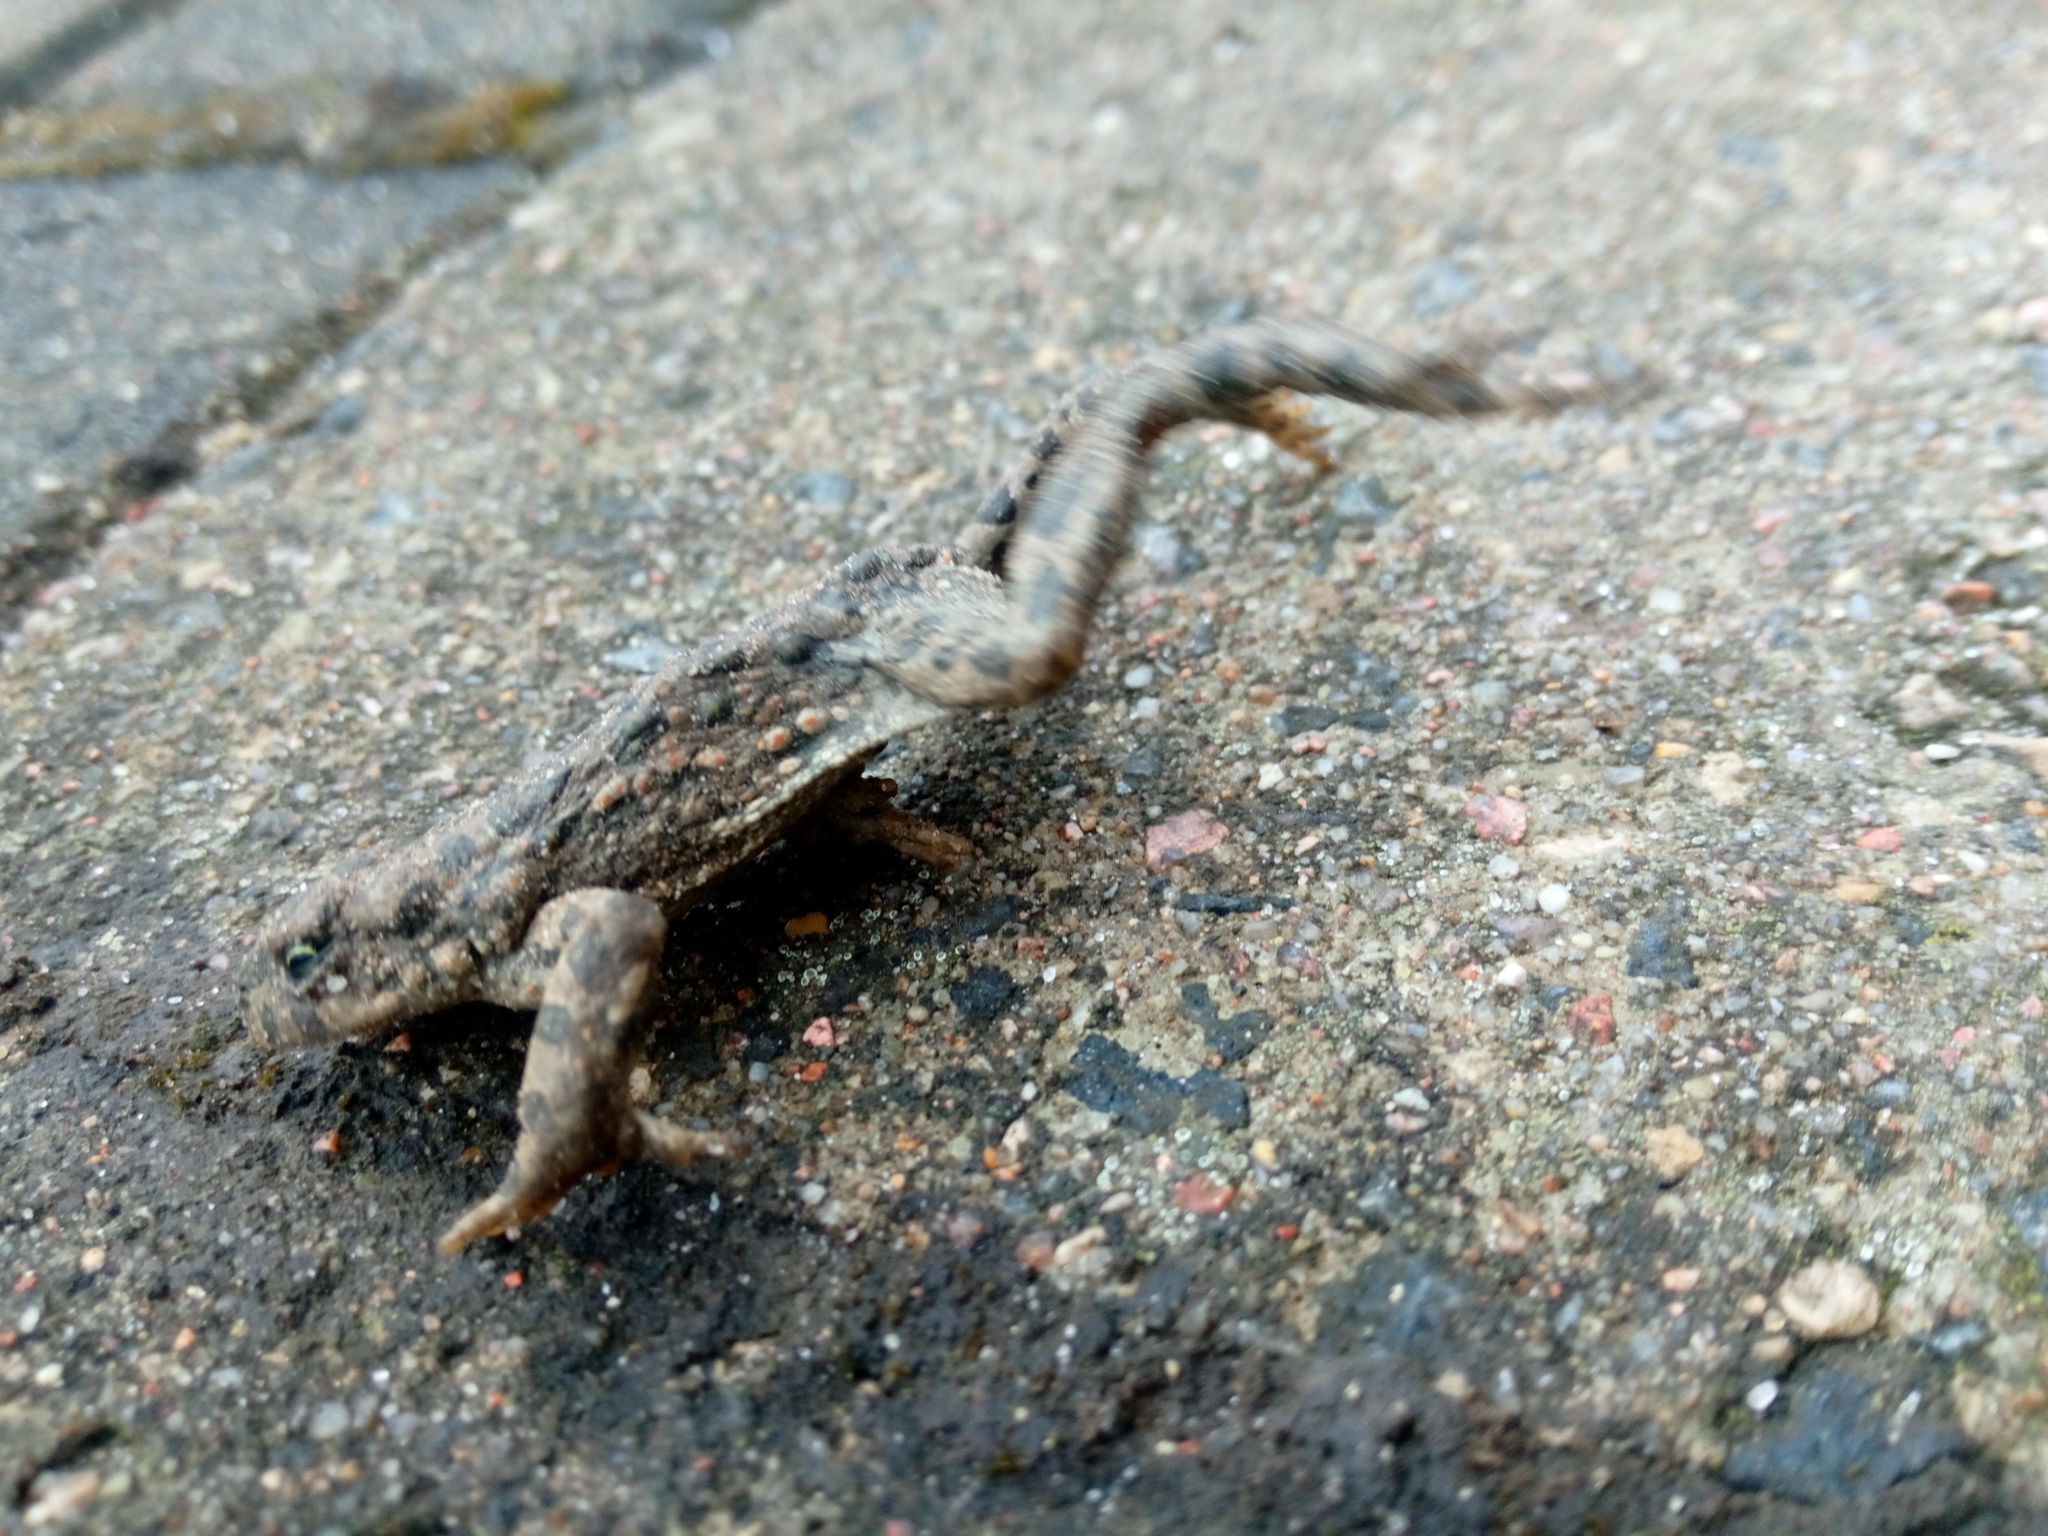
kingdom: Animalia
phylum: Chordata
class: Amphibia
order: Anura
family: Bufonidae
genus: Bufotes
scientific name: Bufotes viridis
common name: European green toad
